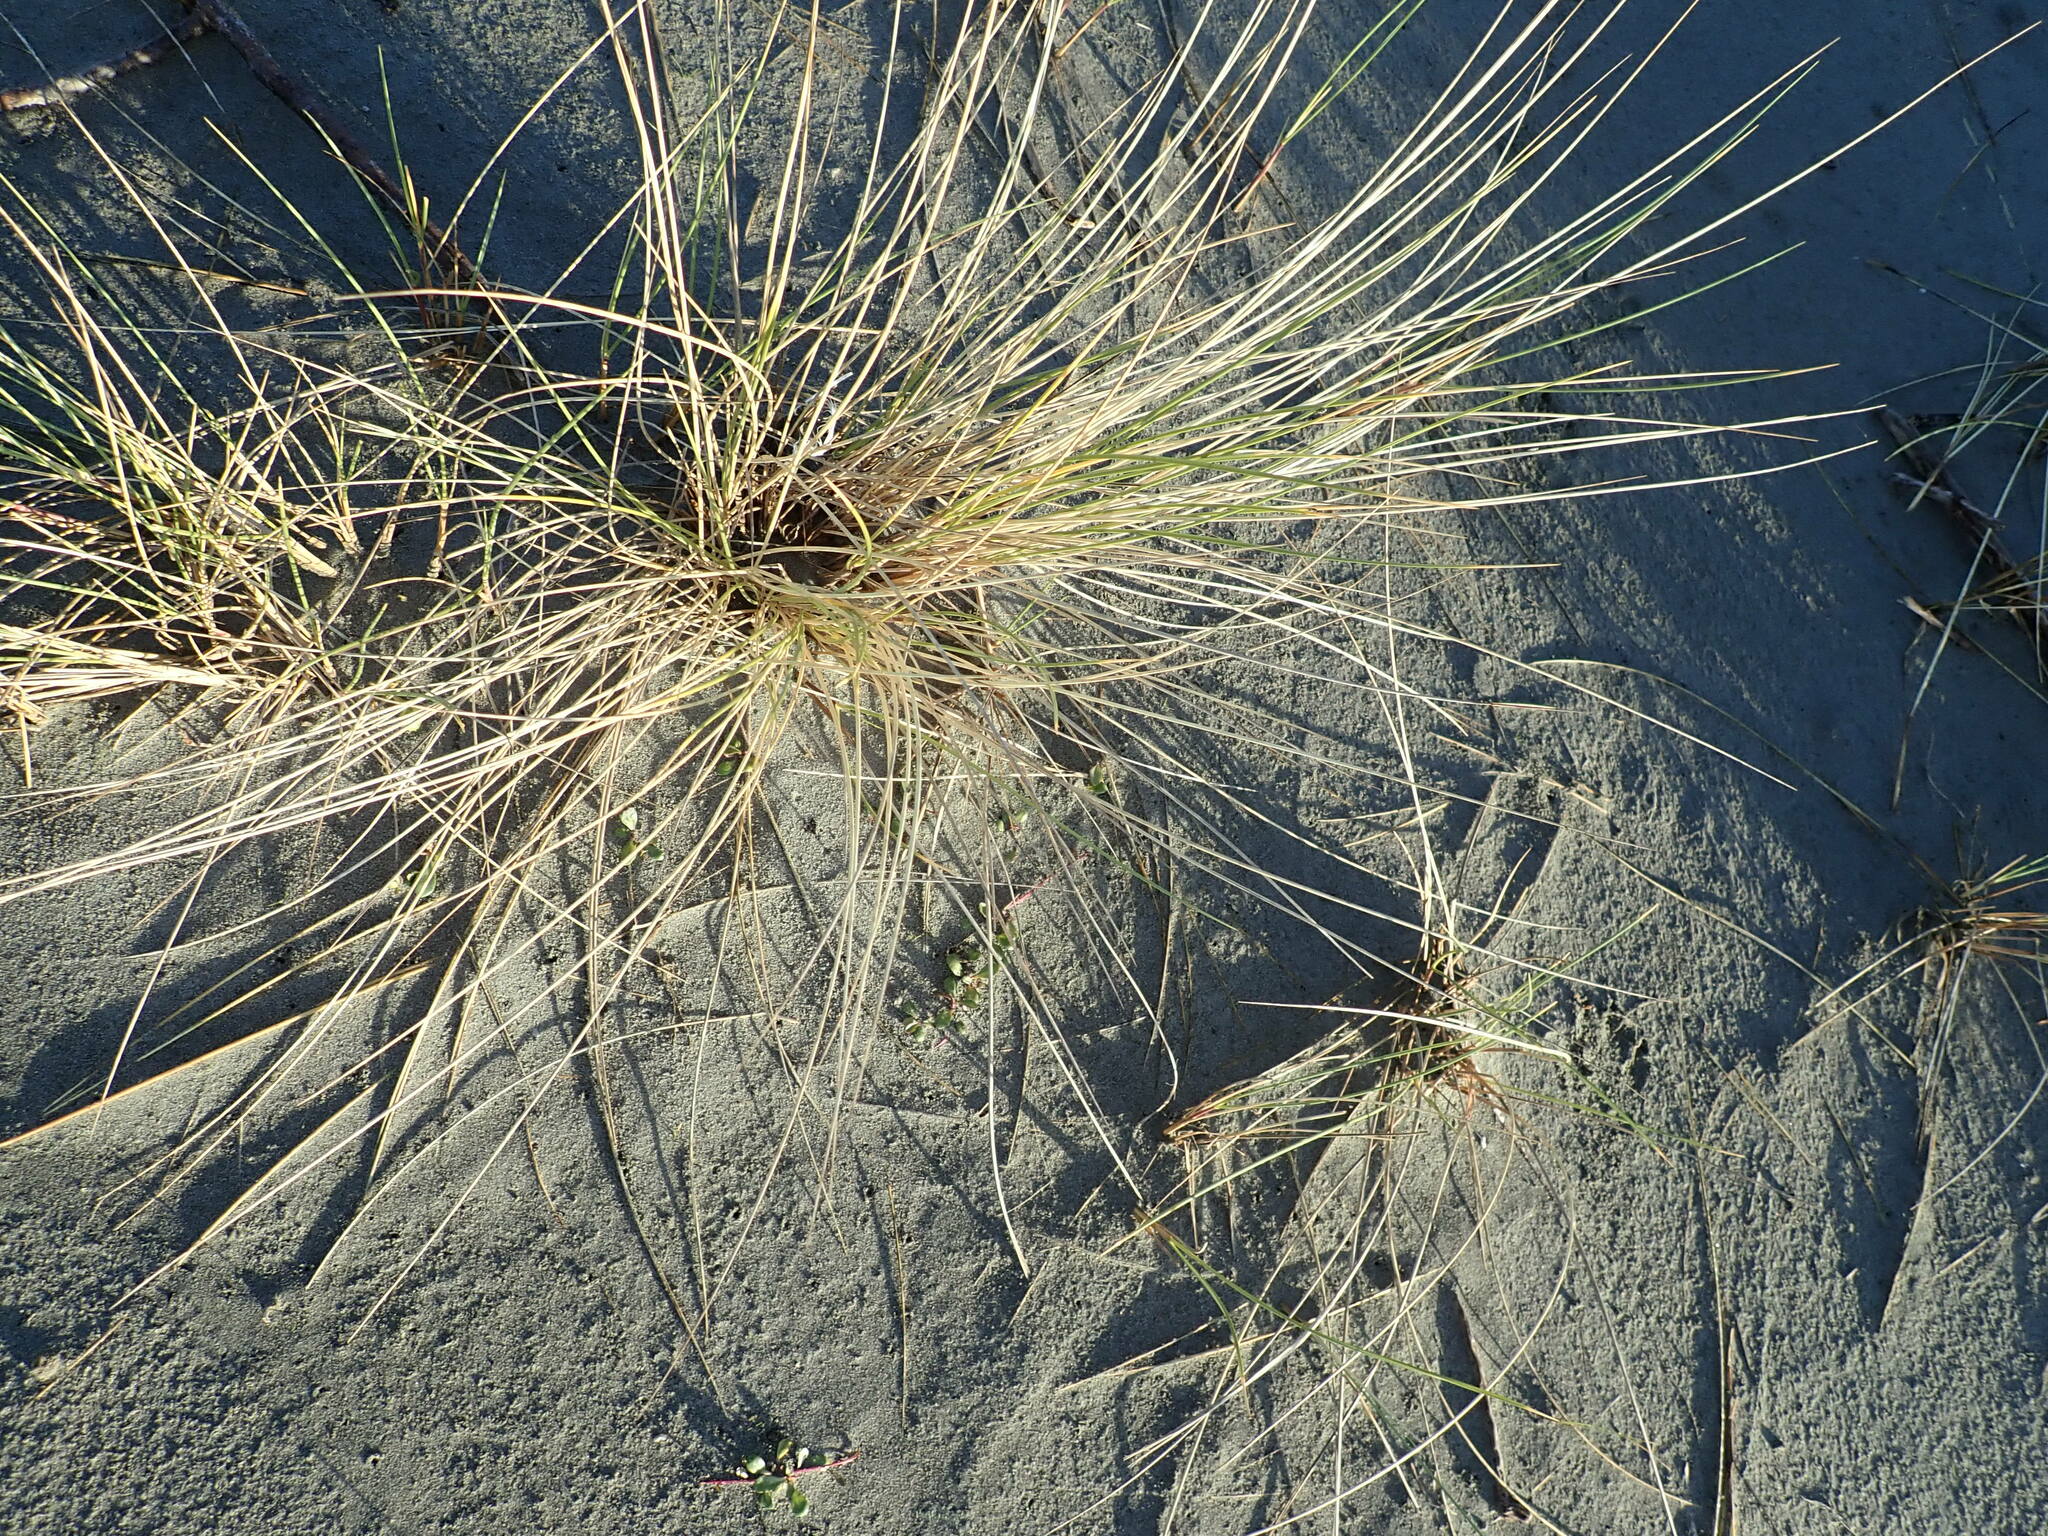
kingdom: Plantae
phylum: Tracheophyta
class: Liliopsida
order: Poales
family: Poaceae
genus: Calamagrostis
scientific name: Calamagrostis arenaria
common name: European beachgrass
